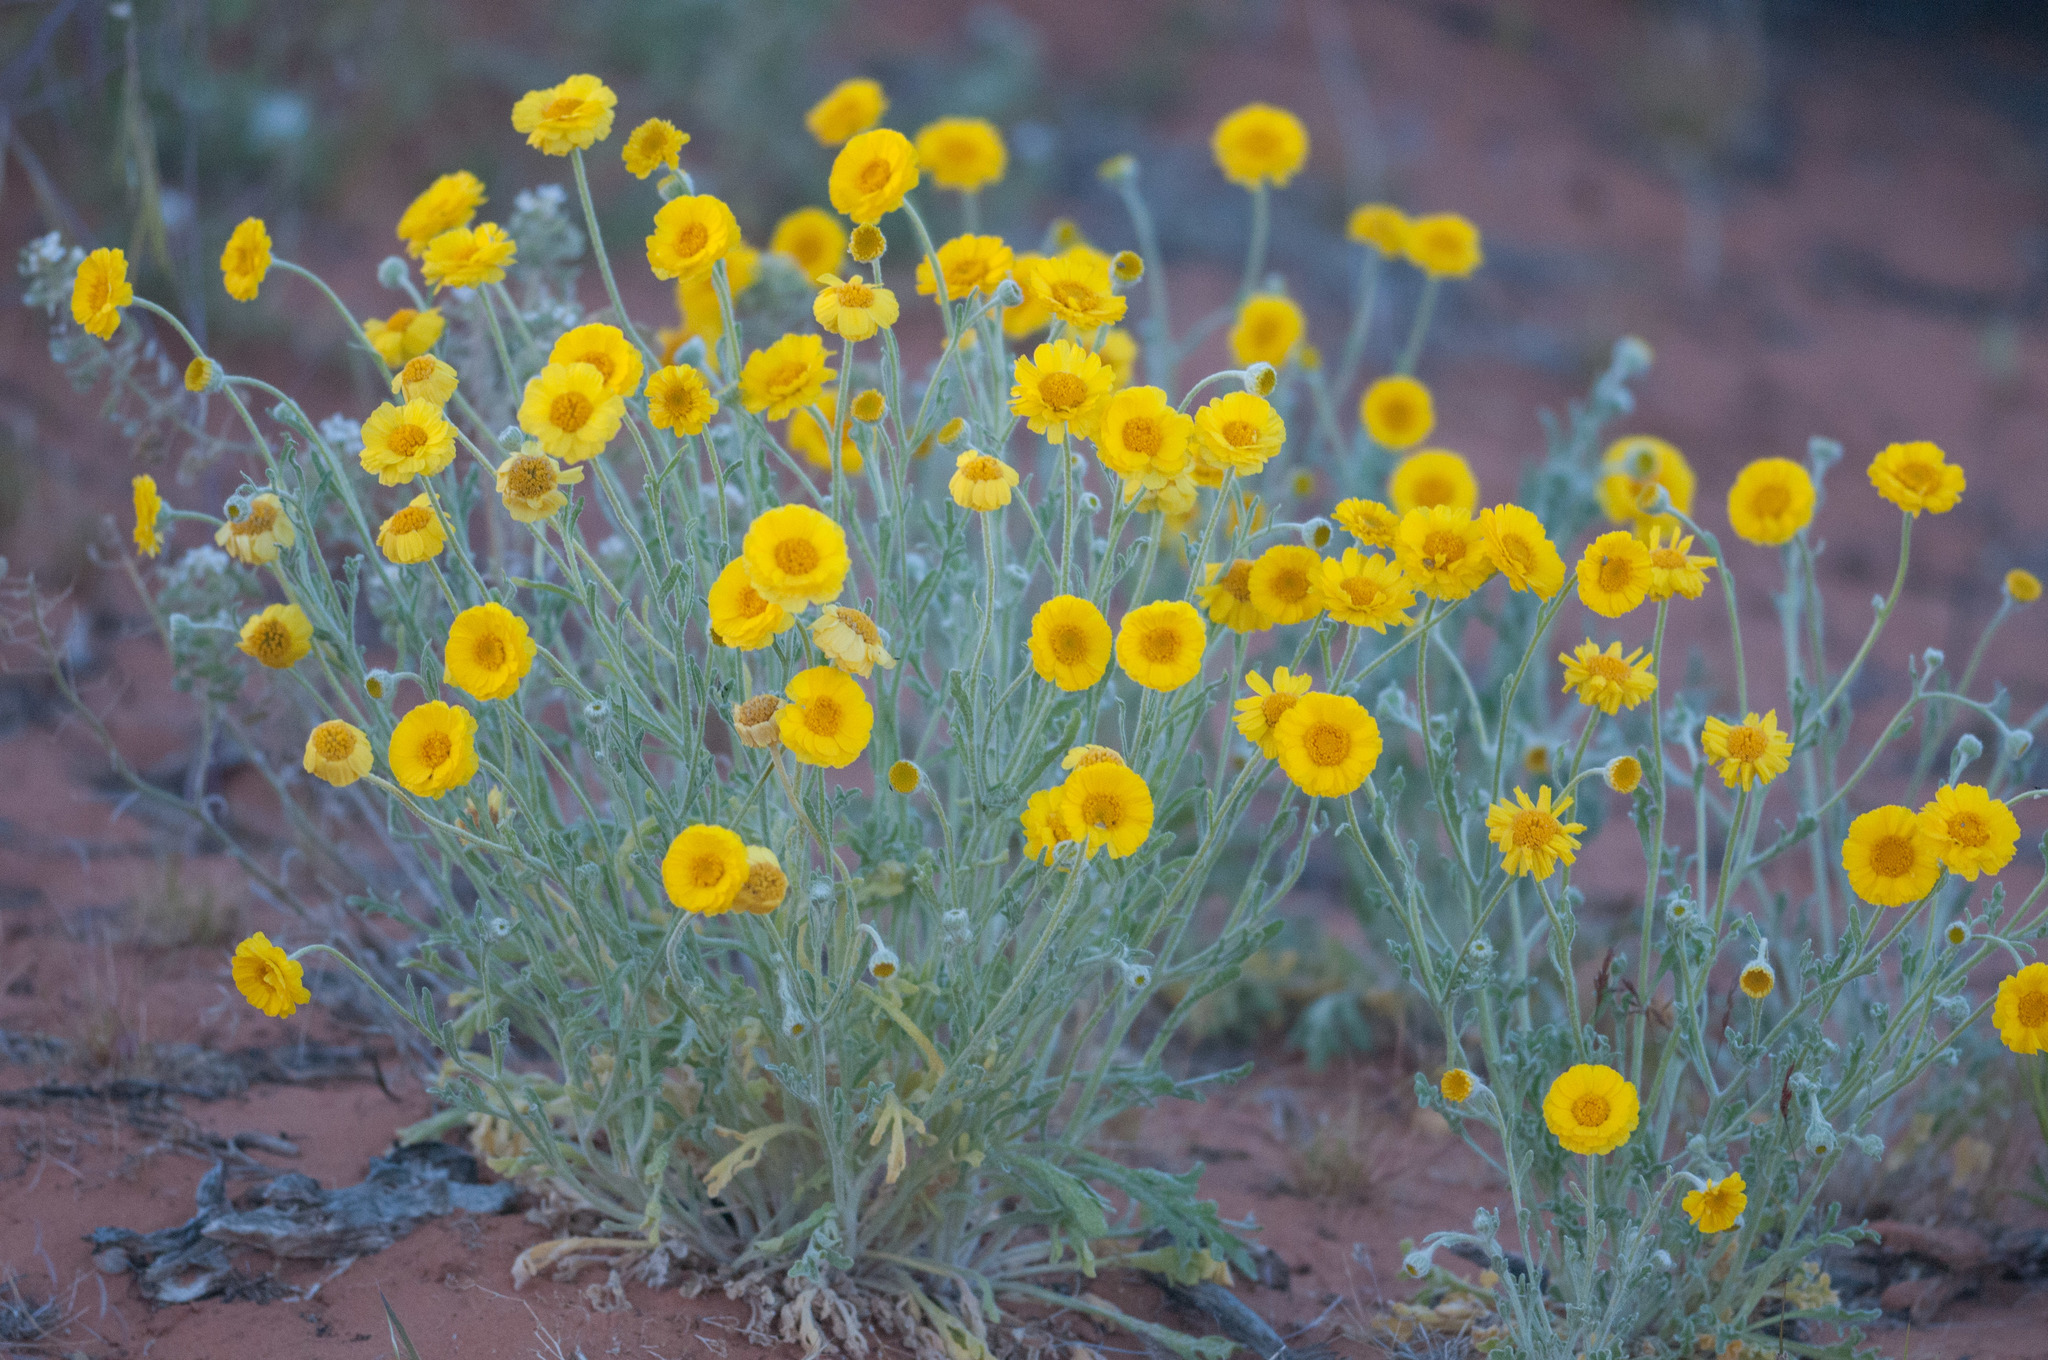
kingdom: Plantae
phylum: Tracheophyta
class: Magnoliopsida
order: Asterales
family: Asteraceae
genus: Baileya
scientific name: Baileya pleniradiata
